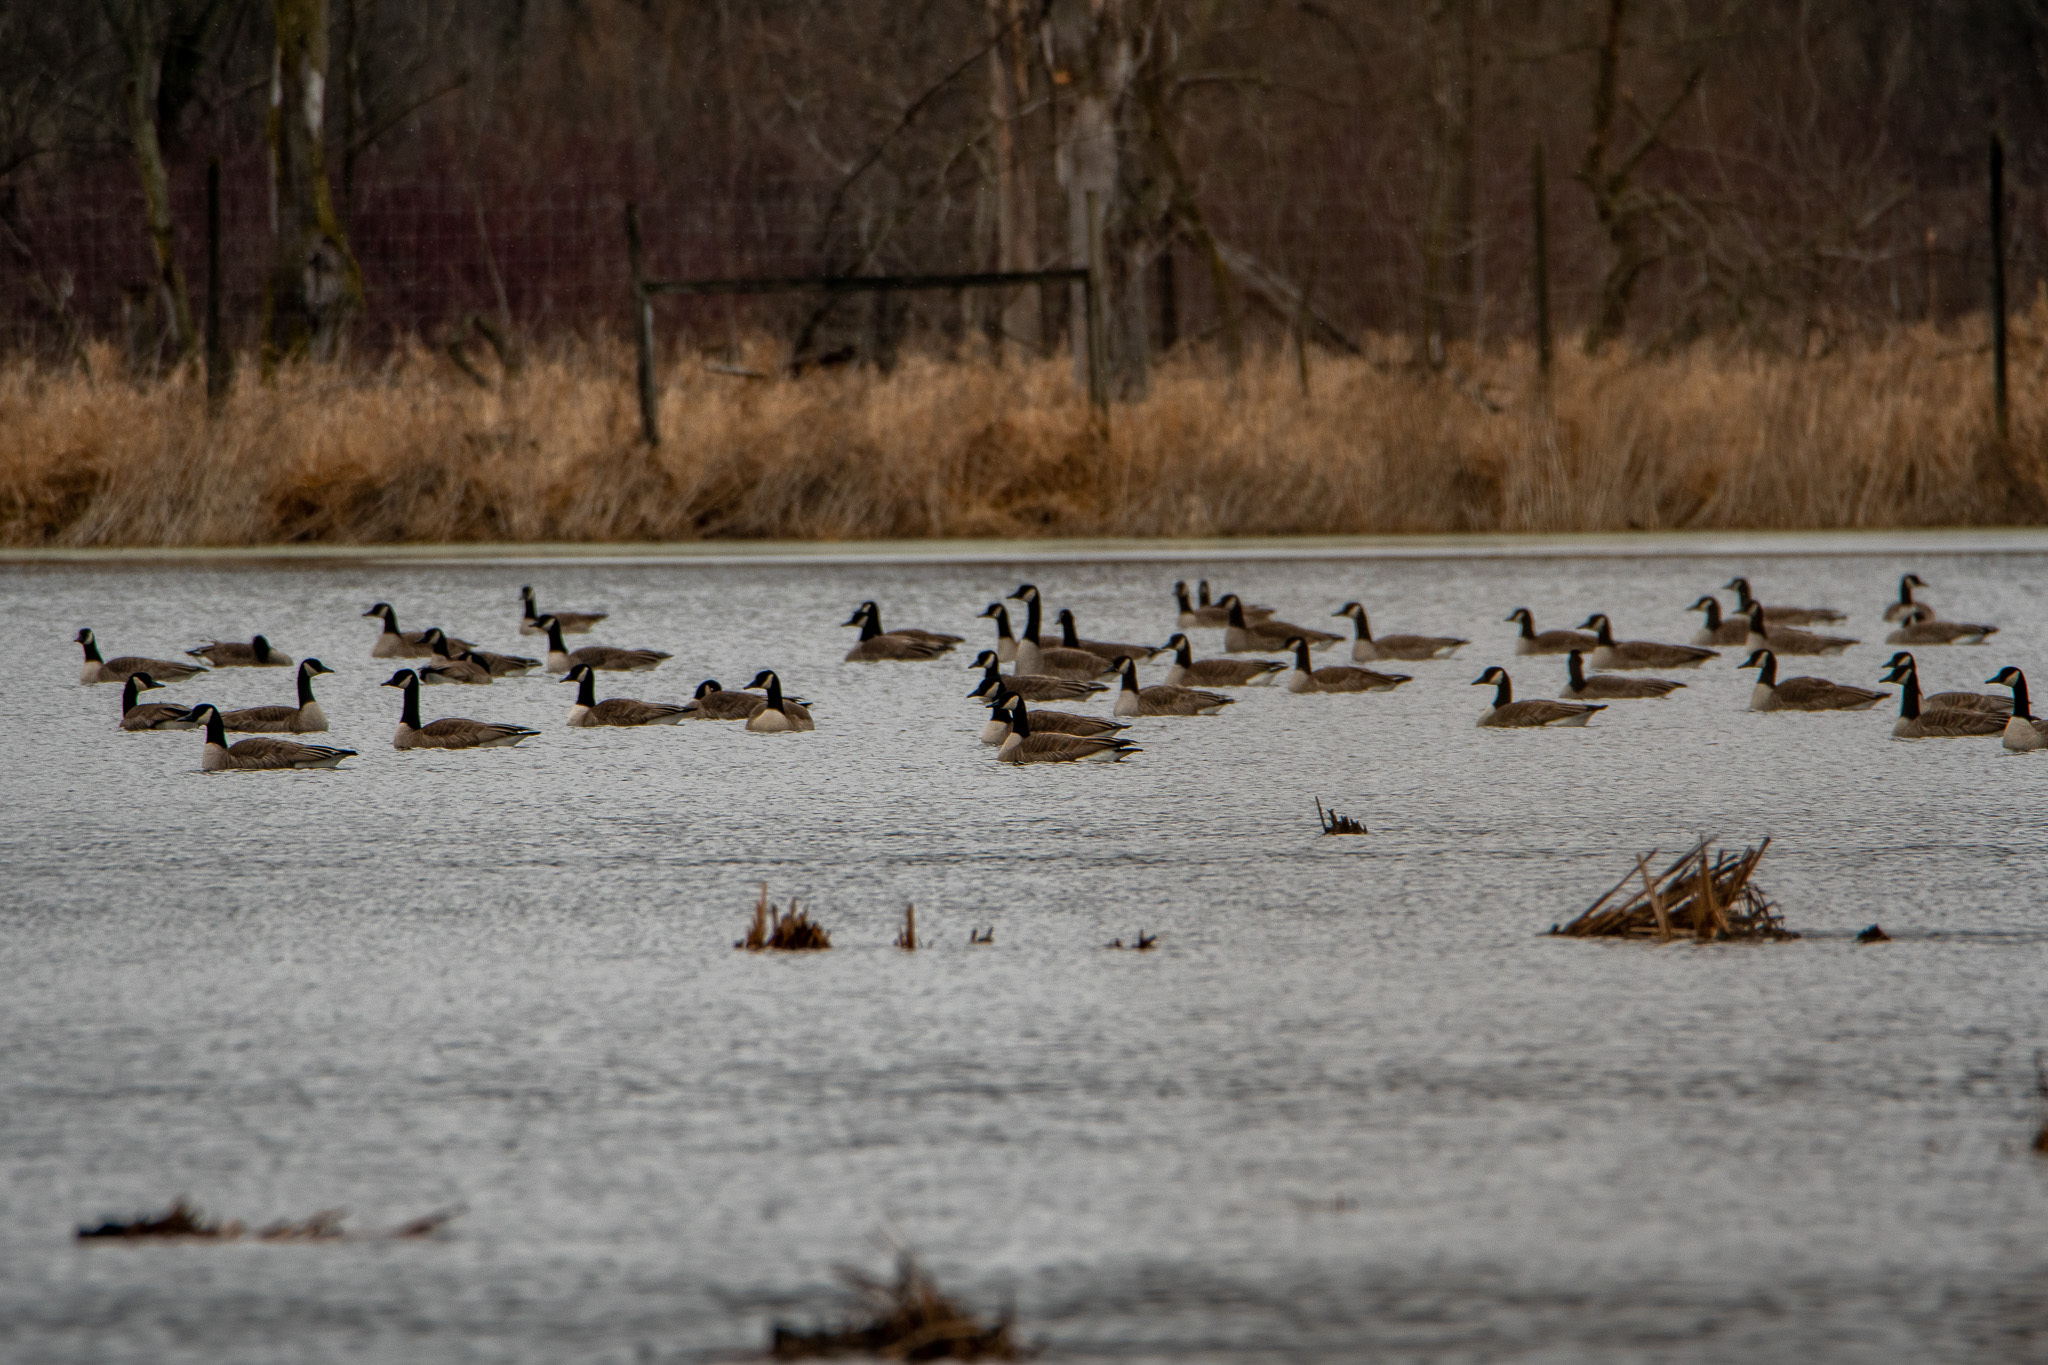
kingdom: Animalia
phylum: Chordata
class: Aves
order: Anseriformes
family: Anatidae
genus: Branta
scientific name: Branta canadensis
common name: Canada goose
